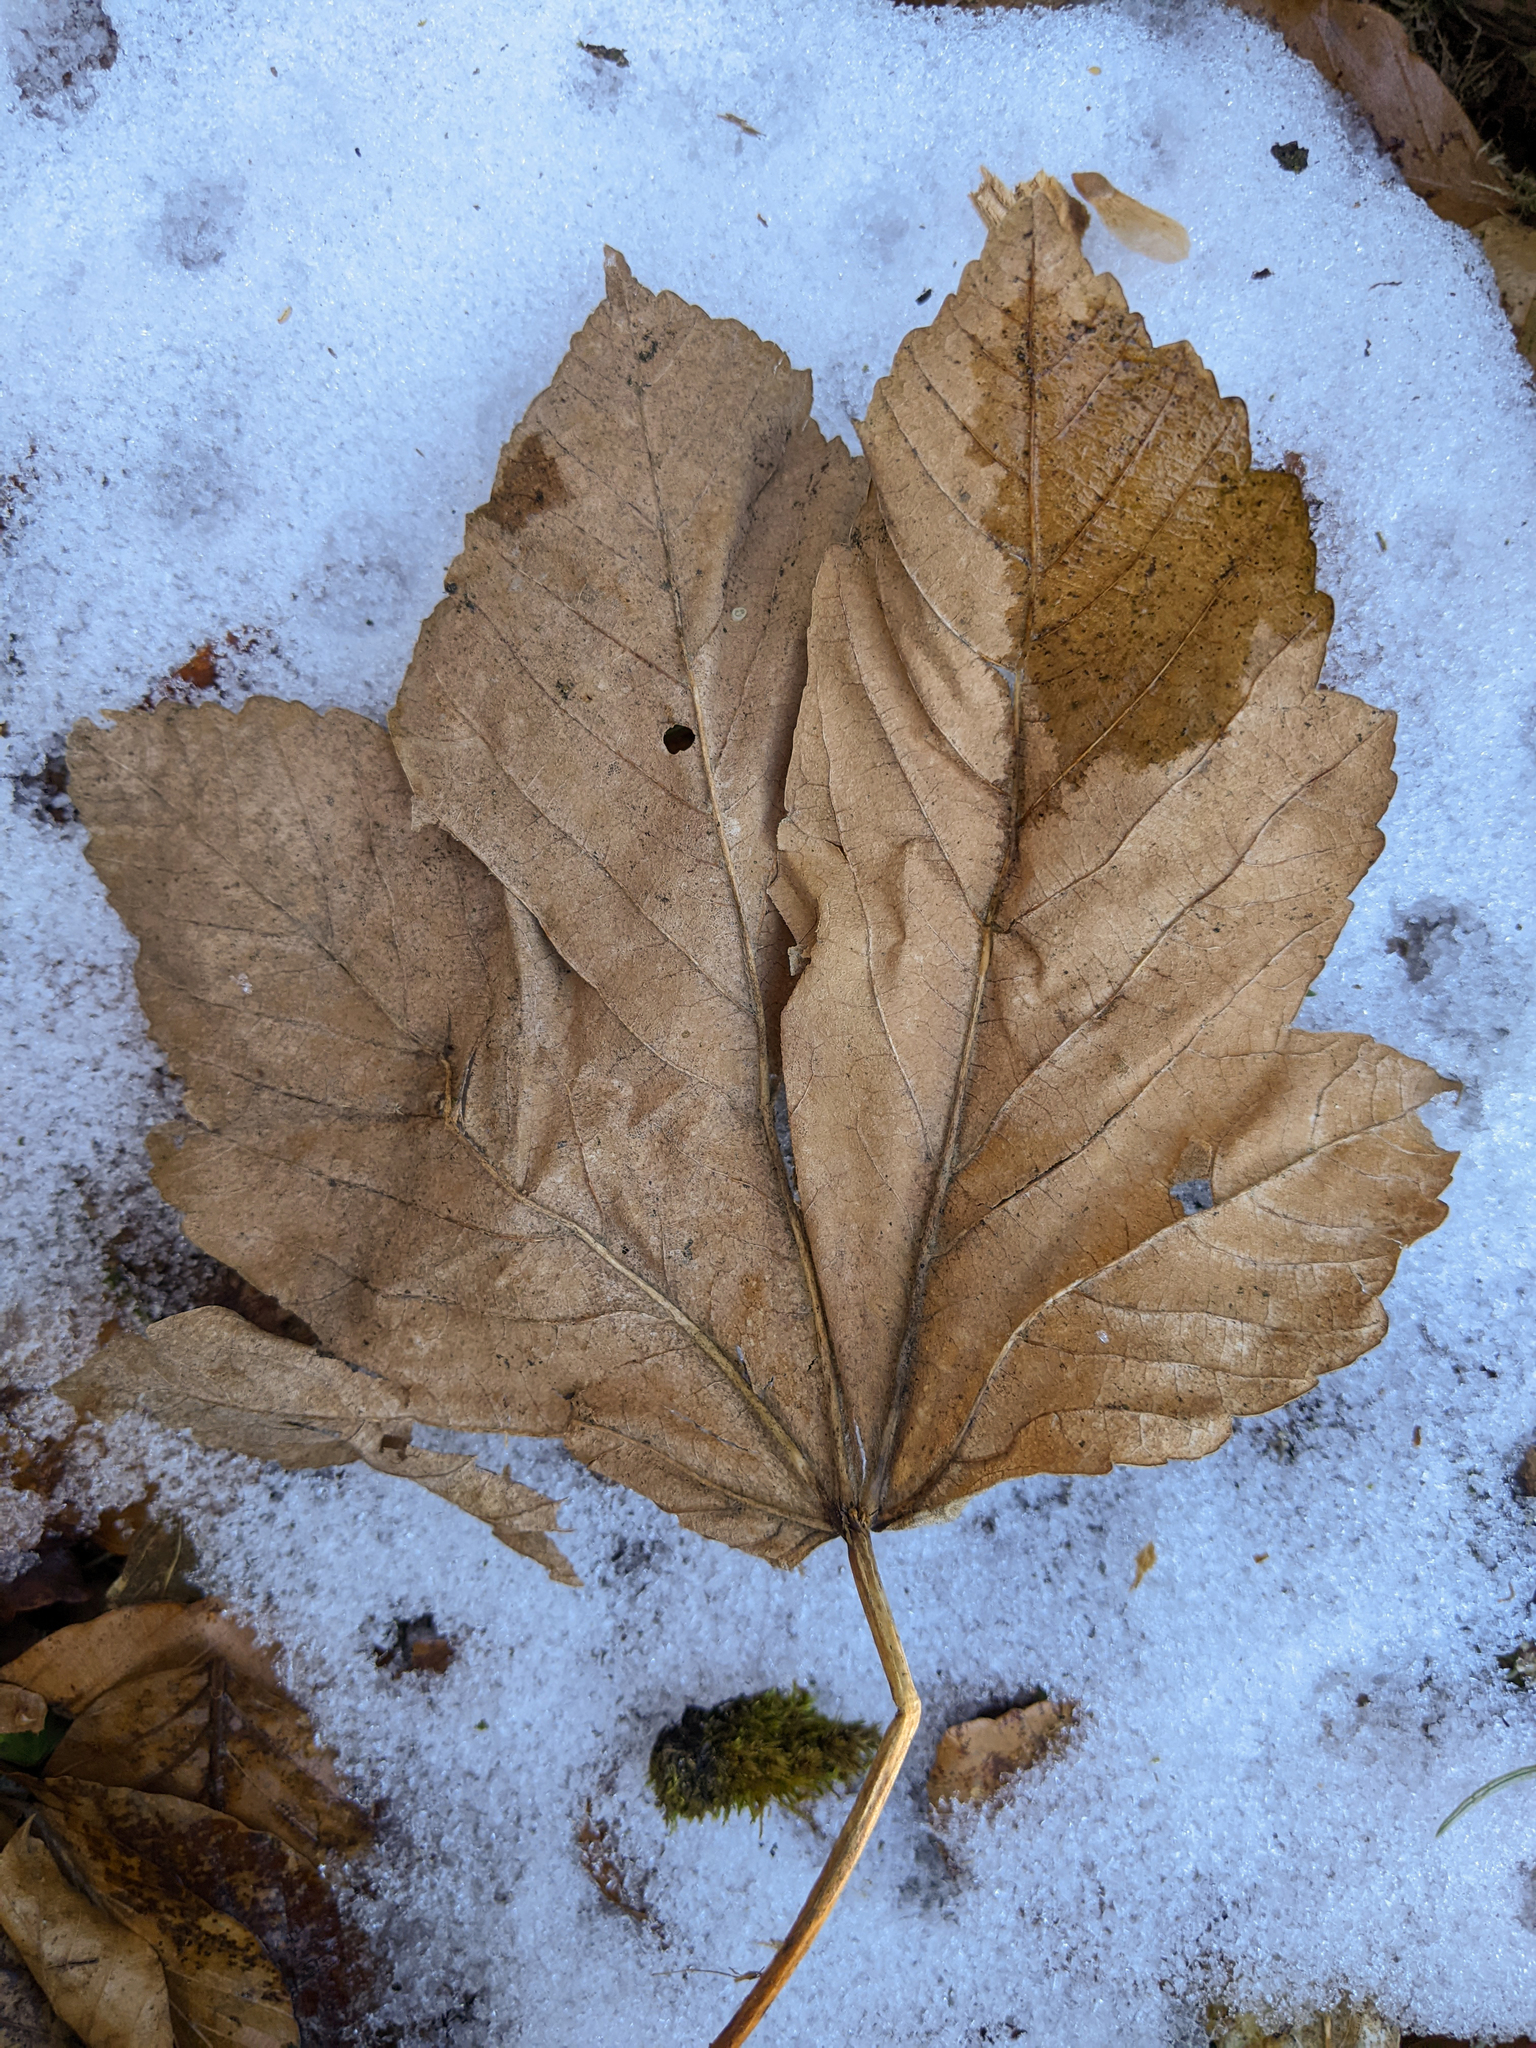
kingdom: Plantae
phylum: Tracheophyta
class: Magnoliopsida
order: Sapindales
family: Sapindaceae
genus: Acer
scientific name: Acer pseudoplatanus
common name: Sycamore
